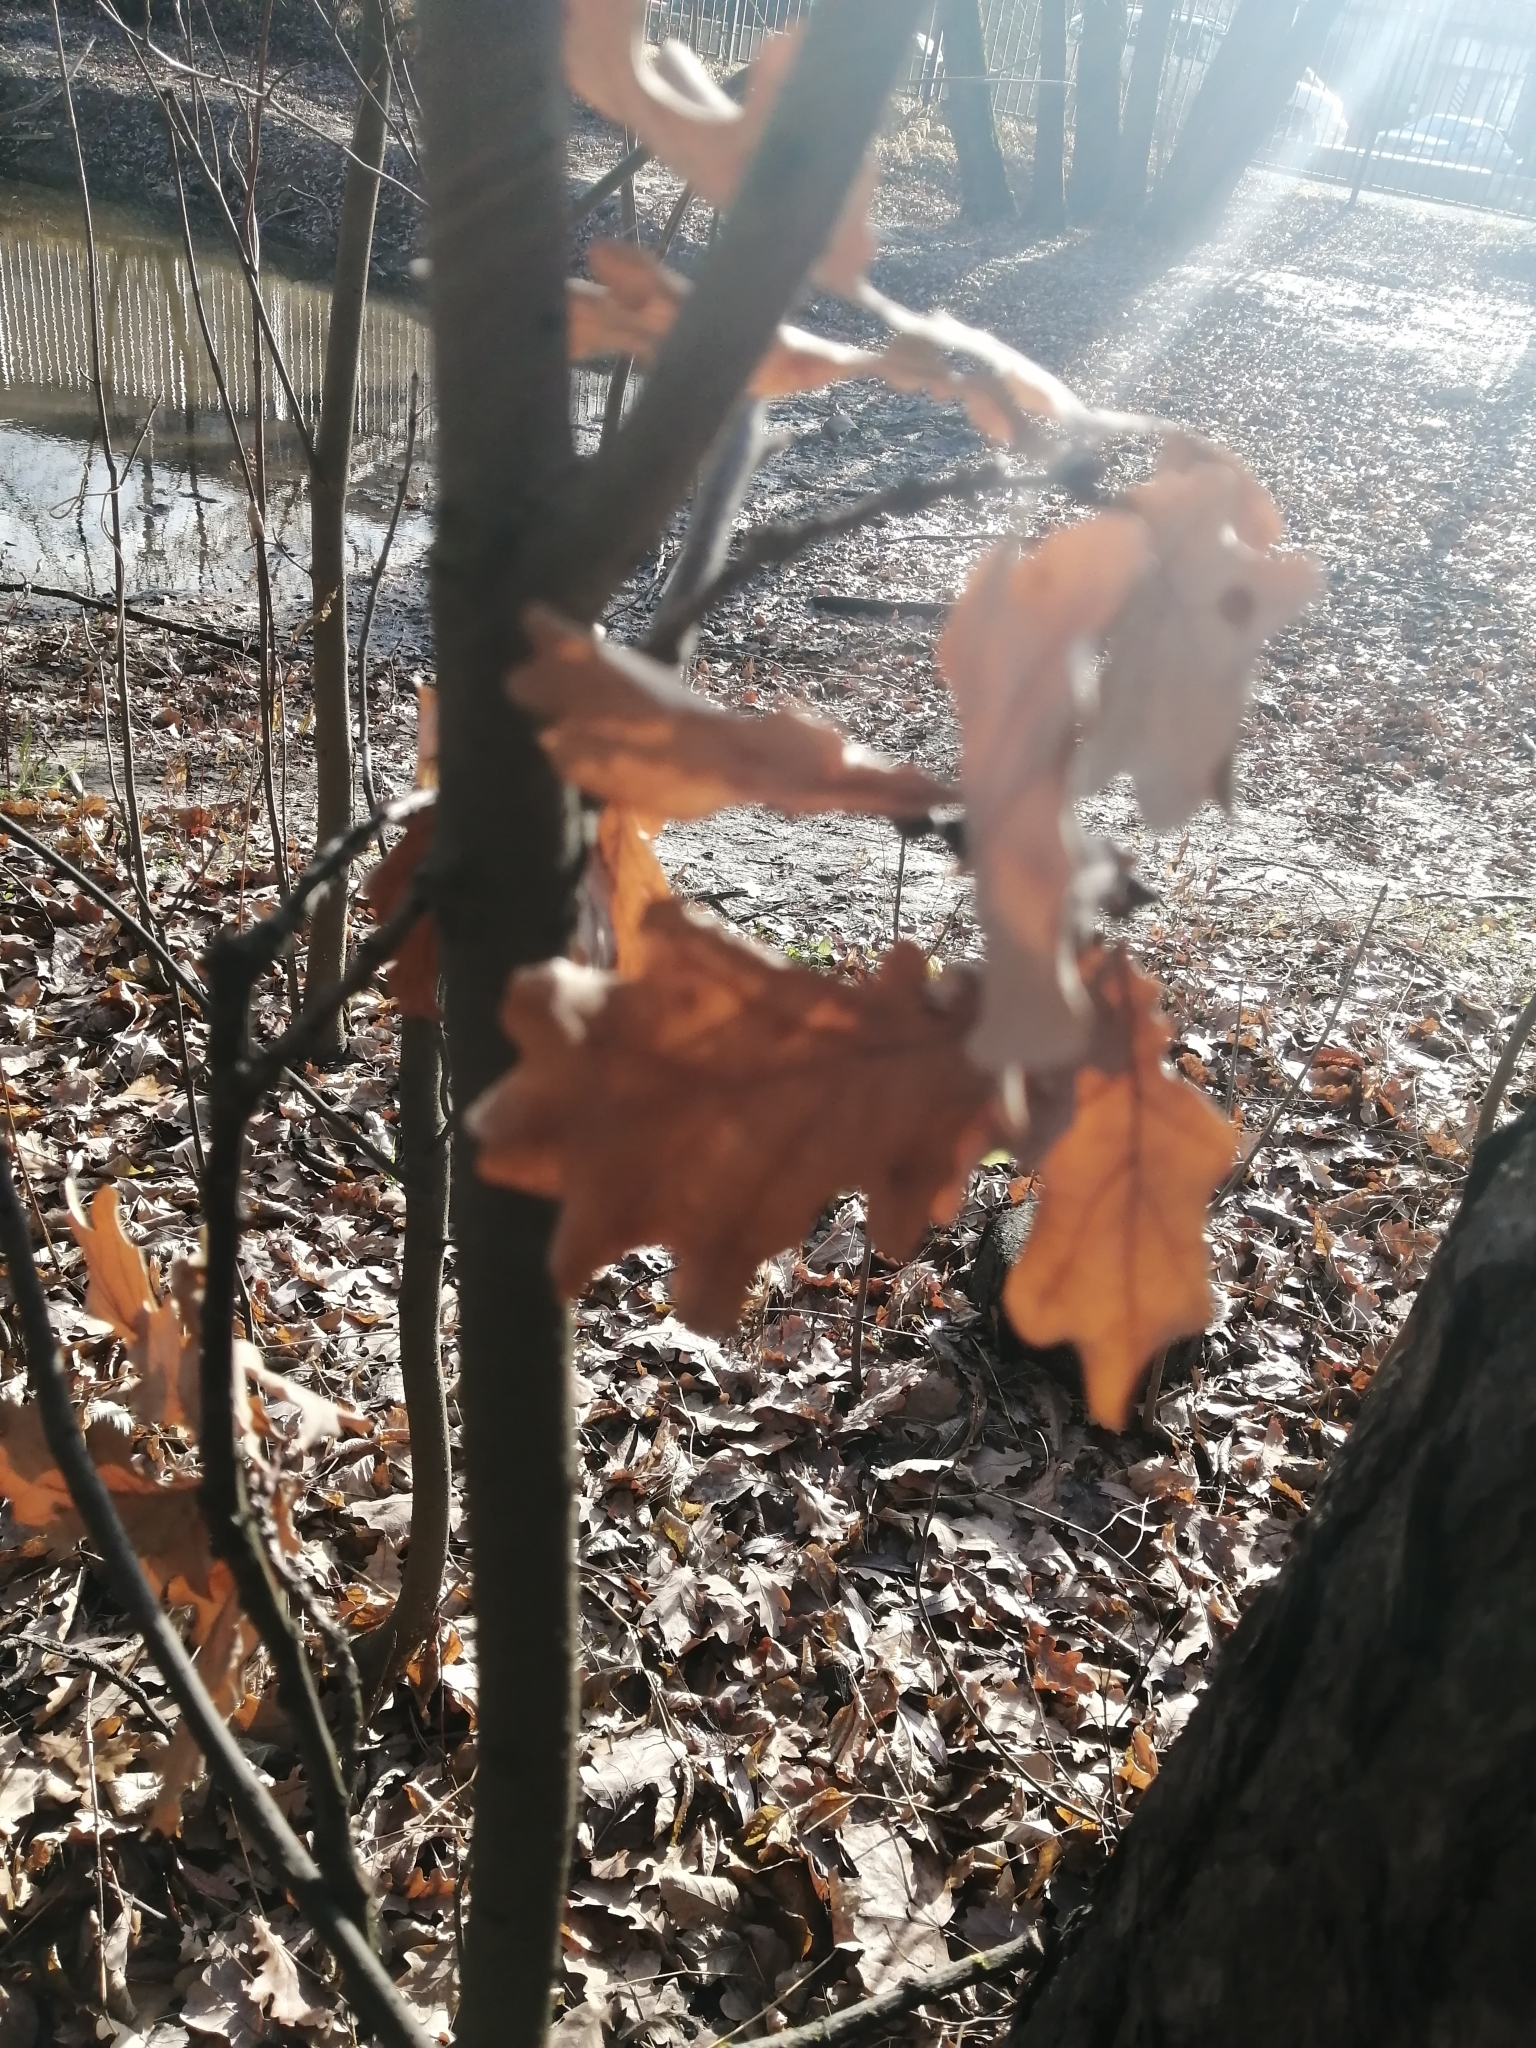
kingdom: Plantae
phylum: Tracheophyta
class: Magnoliopsida
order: Fagales
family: Fagaceae
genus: Quercus
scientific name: Quercus robur
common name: Pedunculate oak
